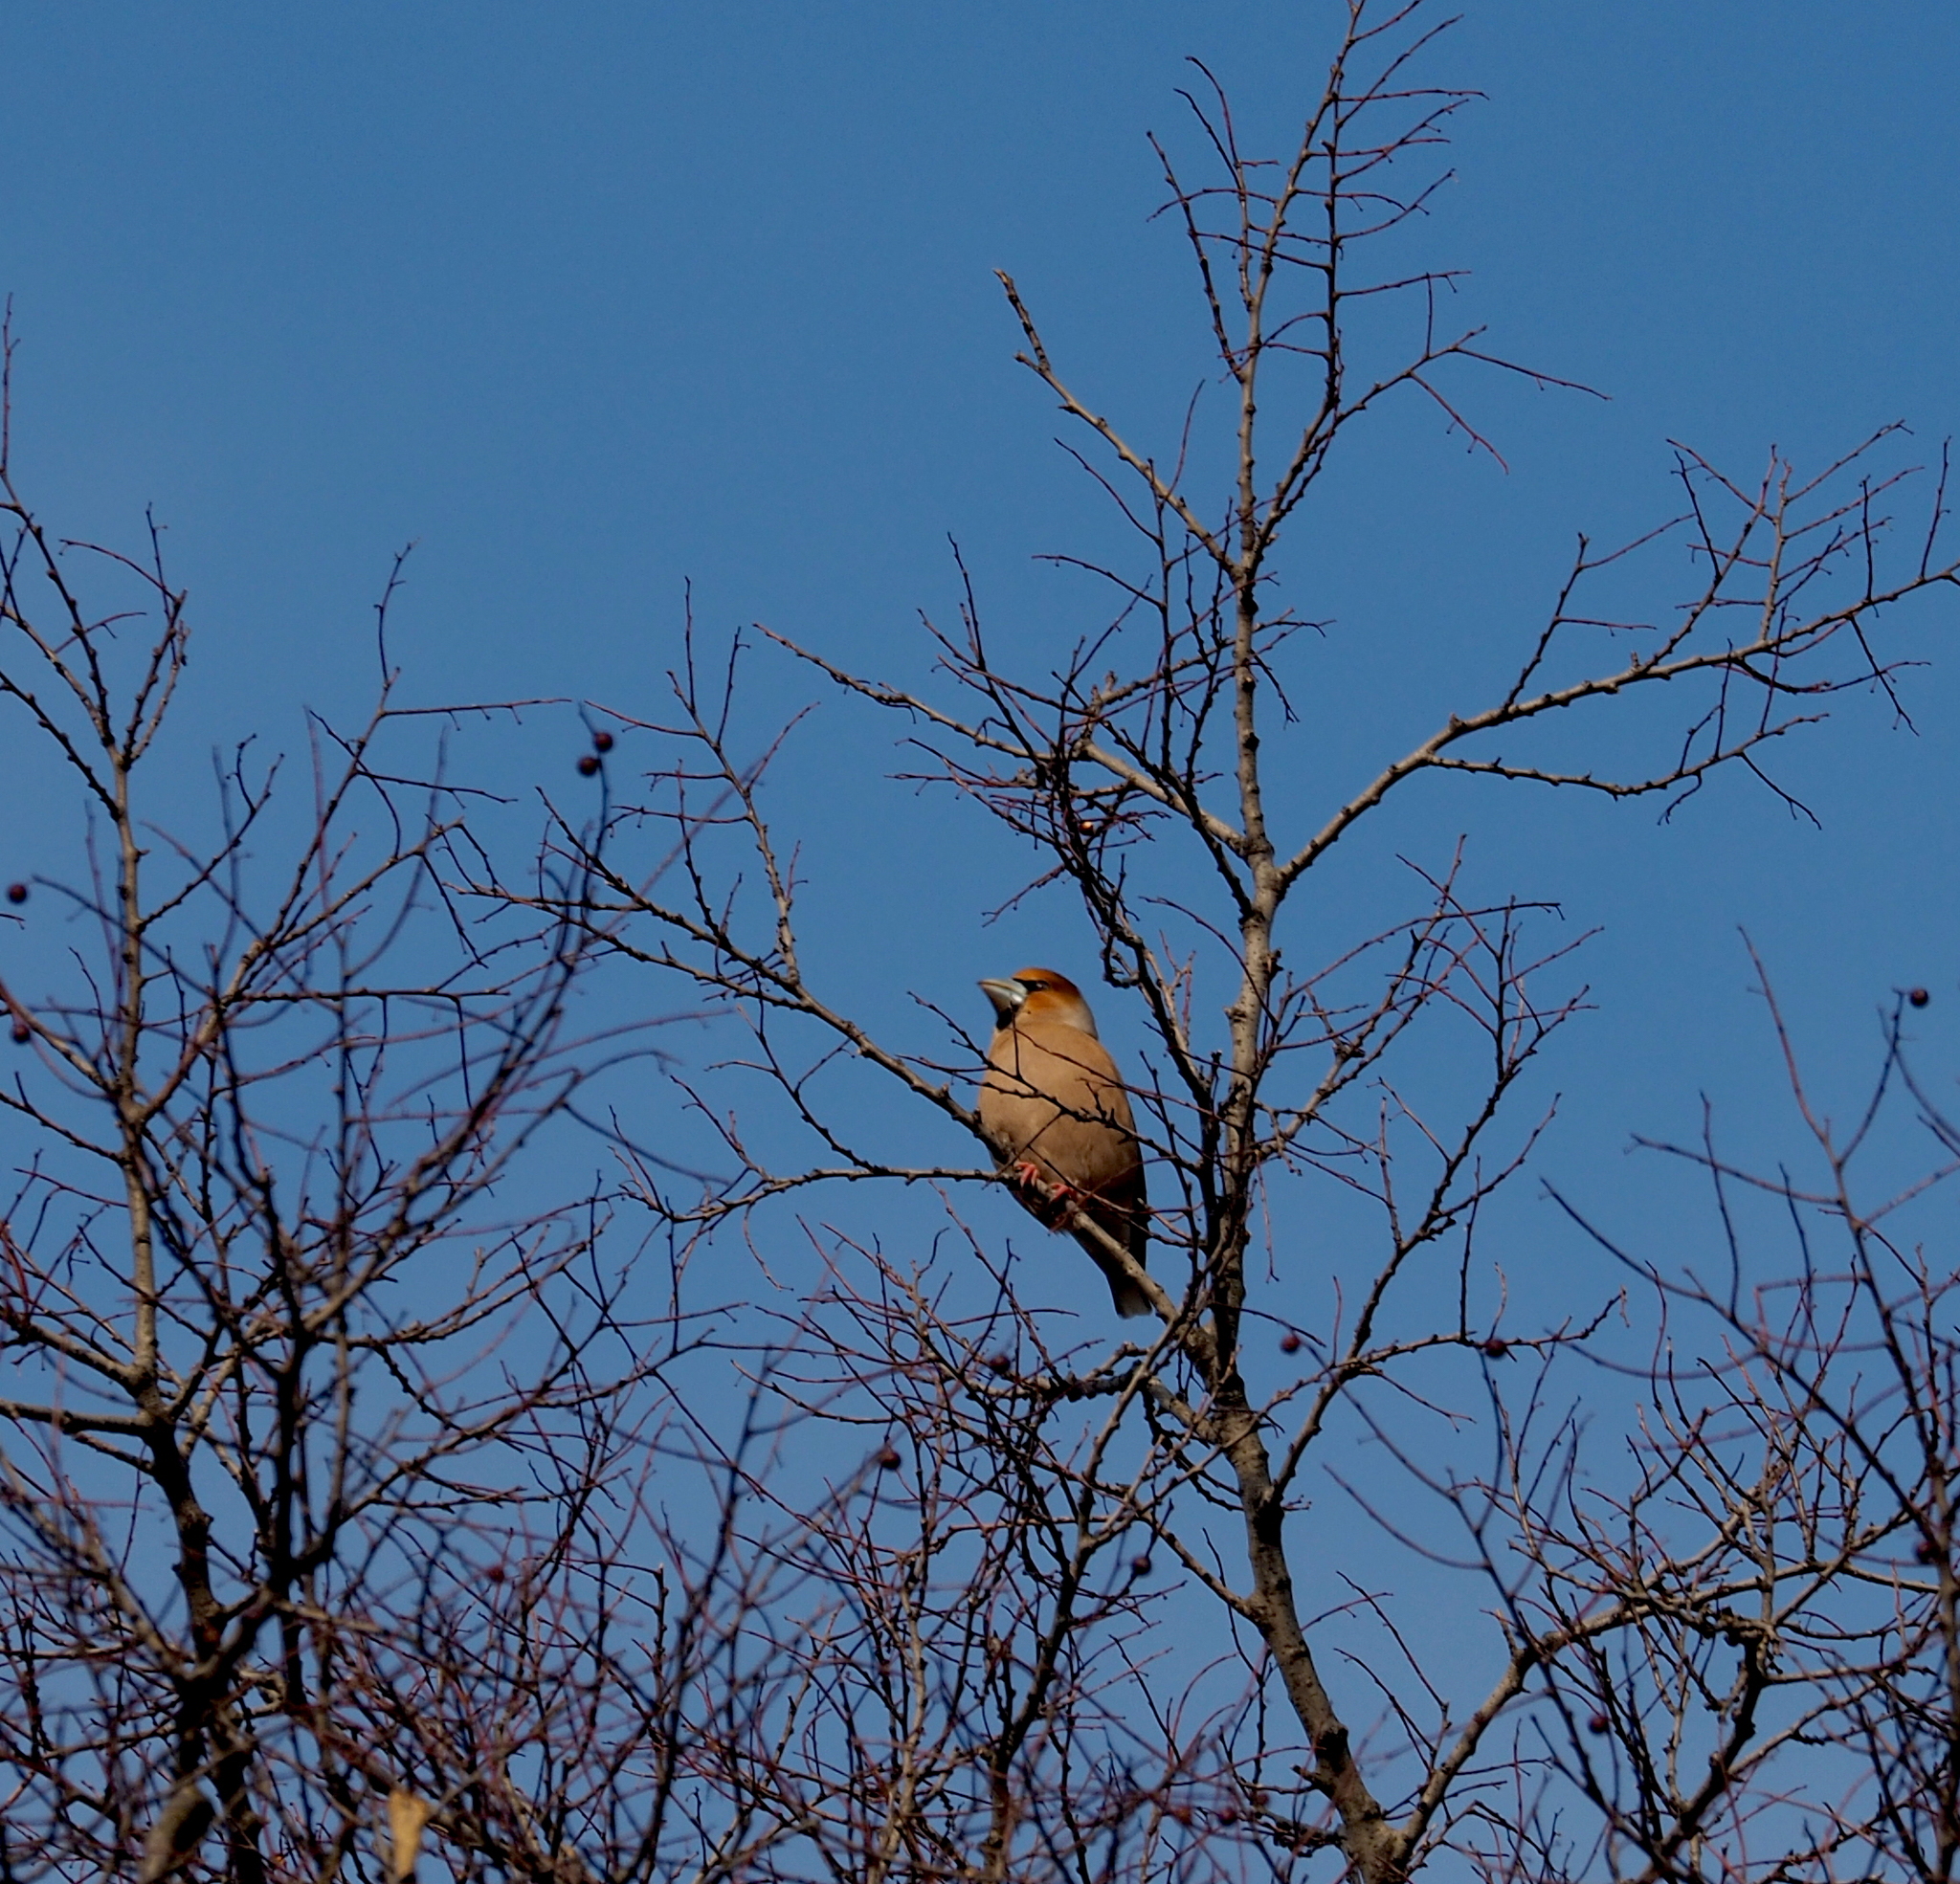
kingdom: Animalia
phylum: Chordata
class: Aves
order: Passeriformes
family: Fringillidae
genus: Coccothraustes
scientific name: Coccothraustes coccothraustes
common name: Hawfinch
